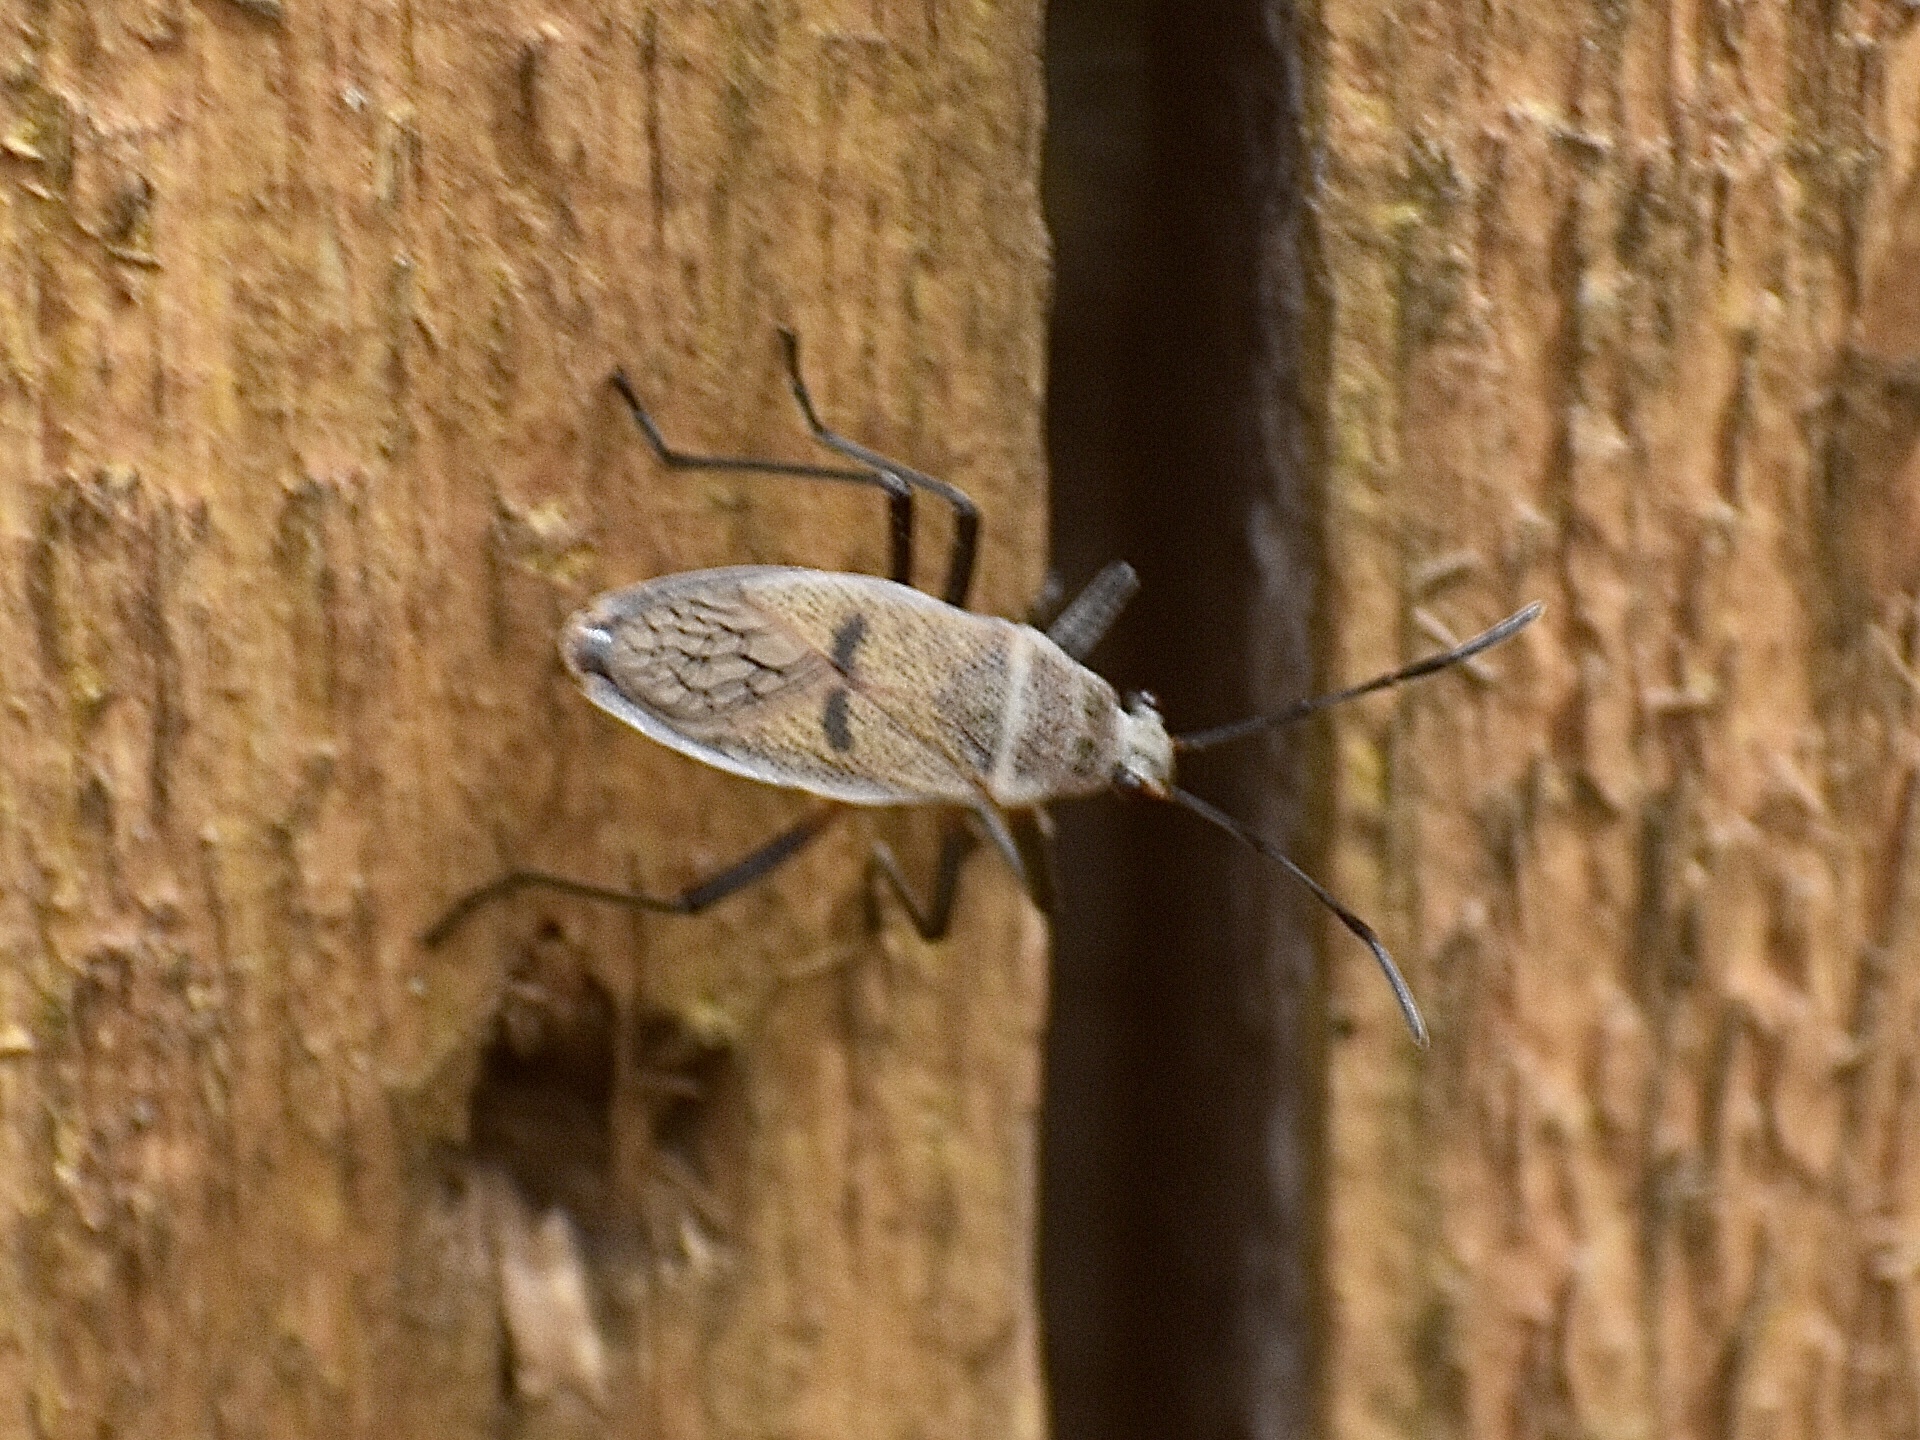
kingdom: Animalia
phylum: Arthropoda
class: Insecta
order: Hemiptera
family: Largidae
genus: Largus
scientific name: Largus maculatus
